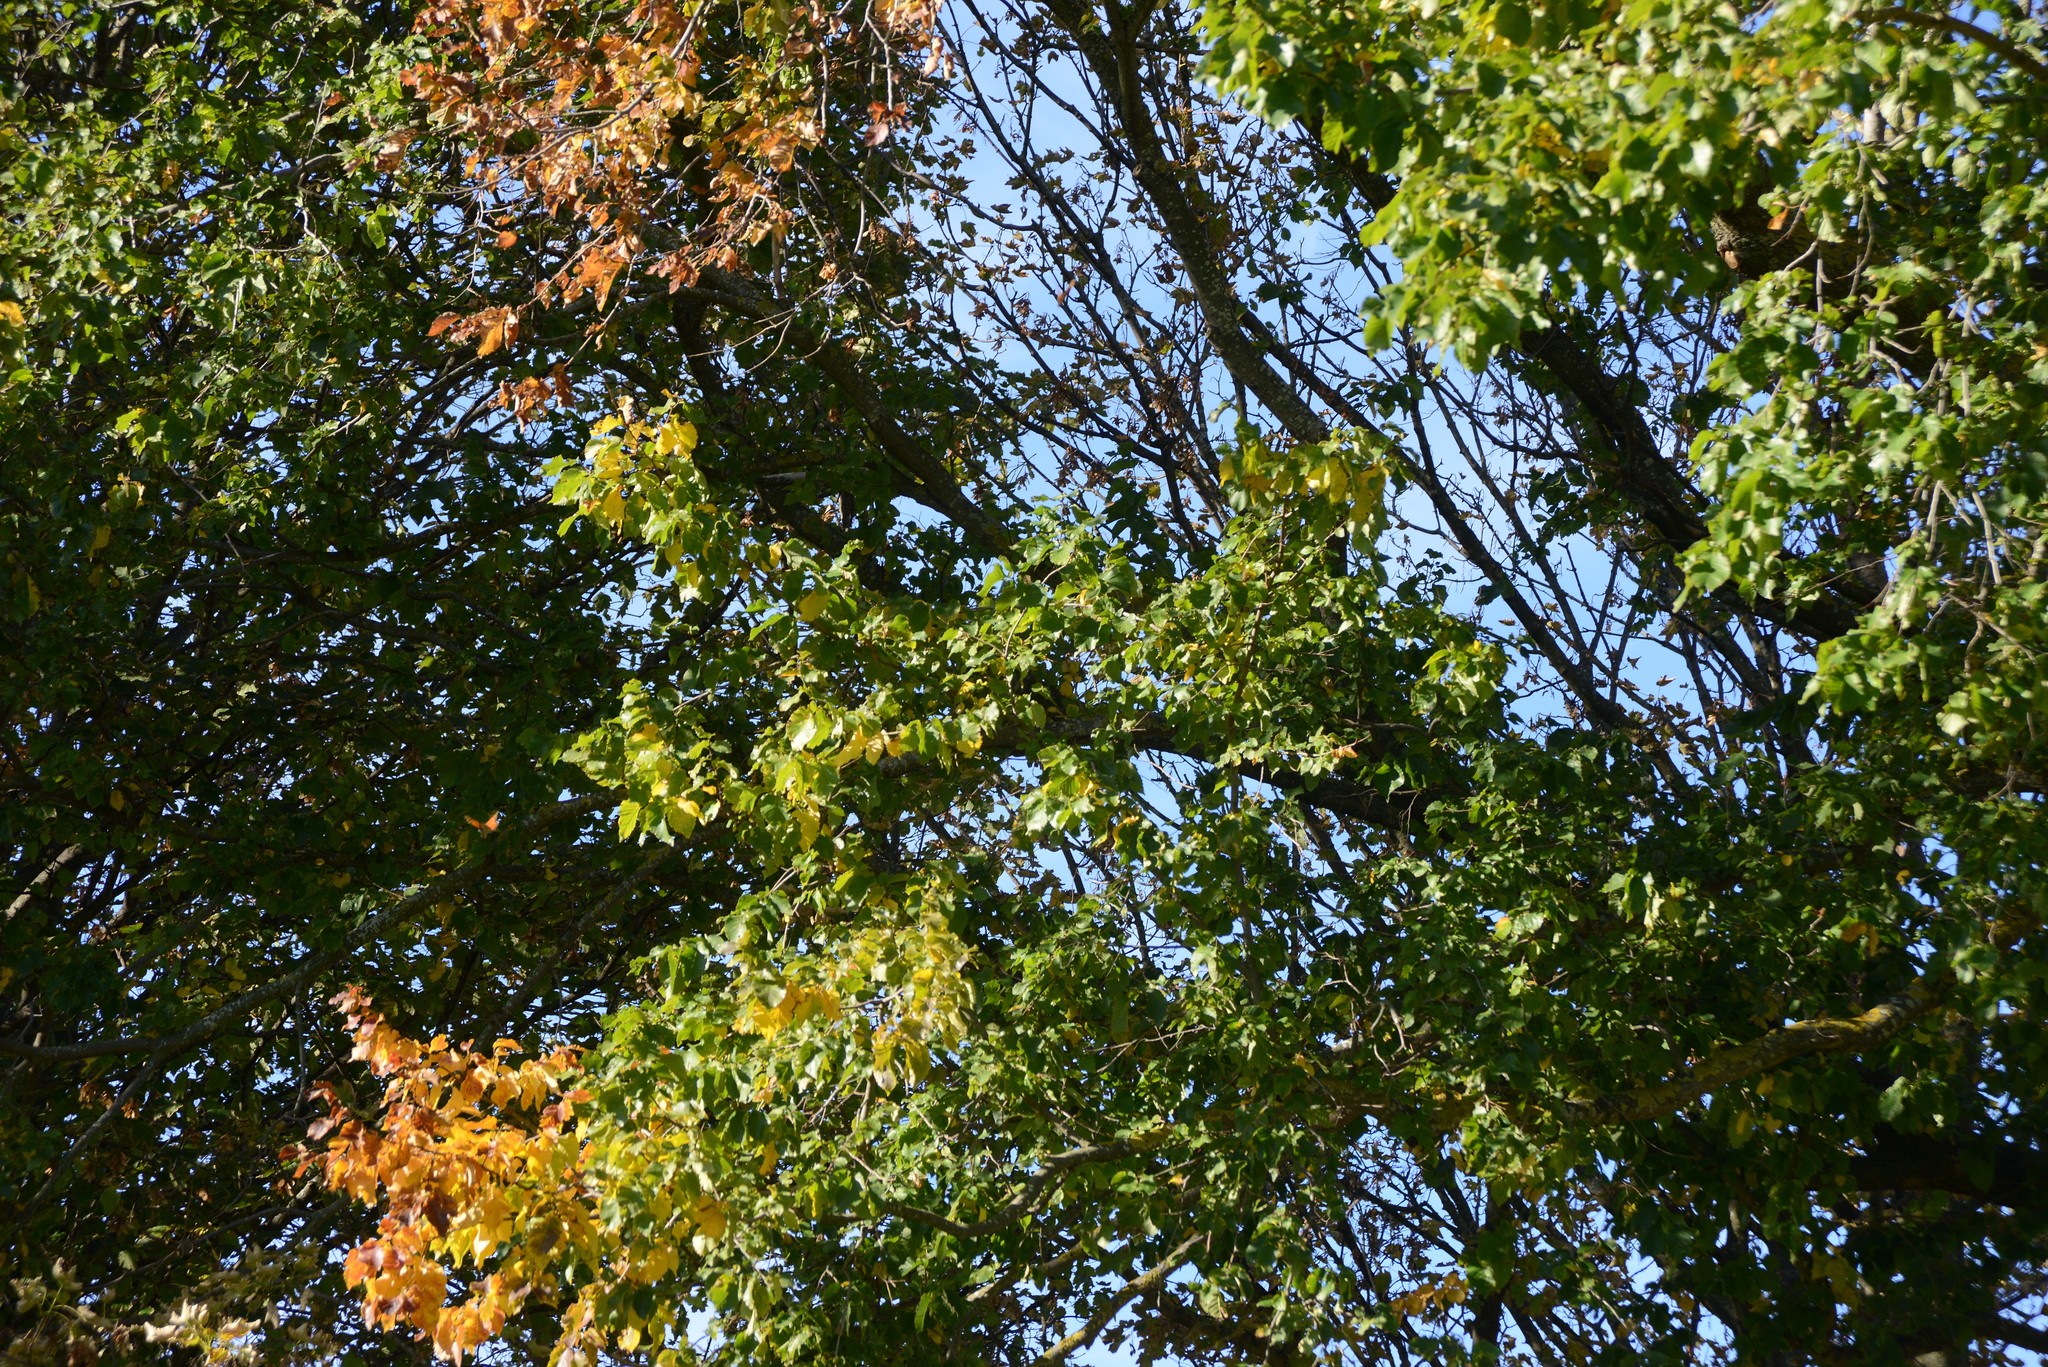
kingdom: Animalia
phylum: Arthropoda
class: Insecta
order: Lepidoptera
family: Nymphalidae
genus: Danaus
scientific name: Danaus plexippus
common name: Monarch
